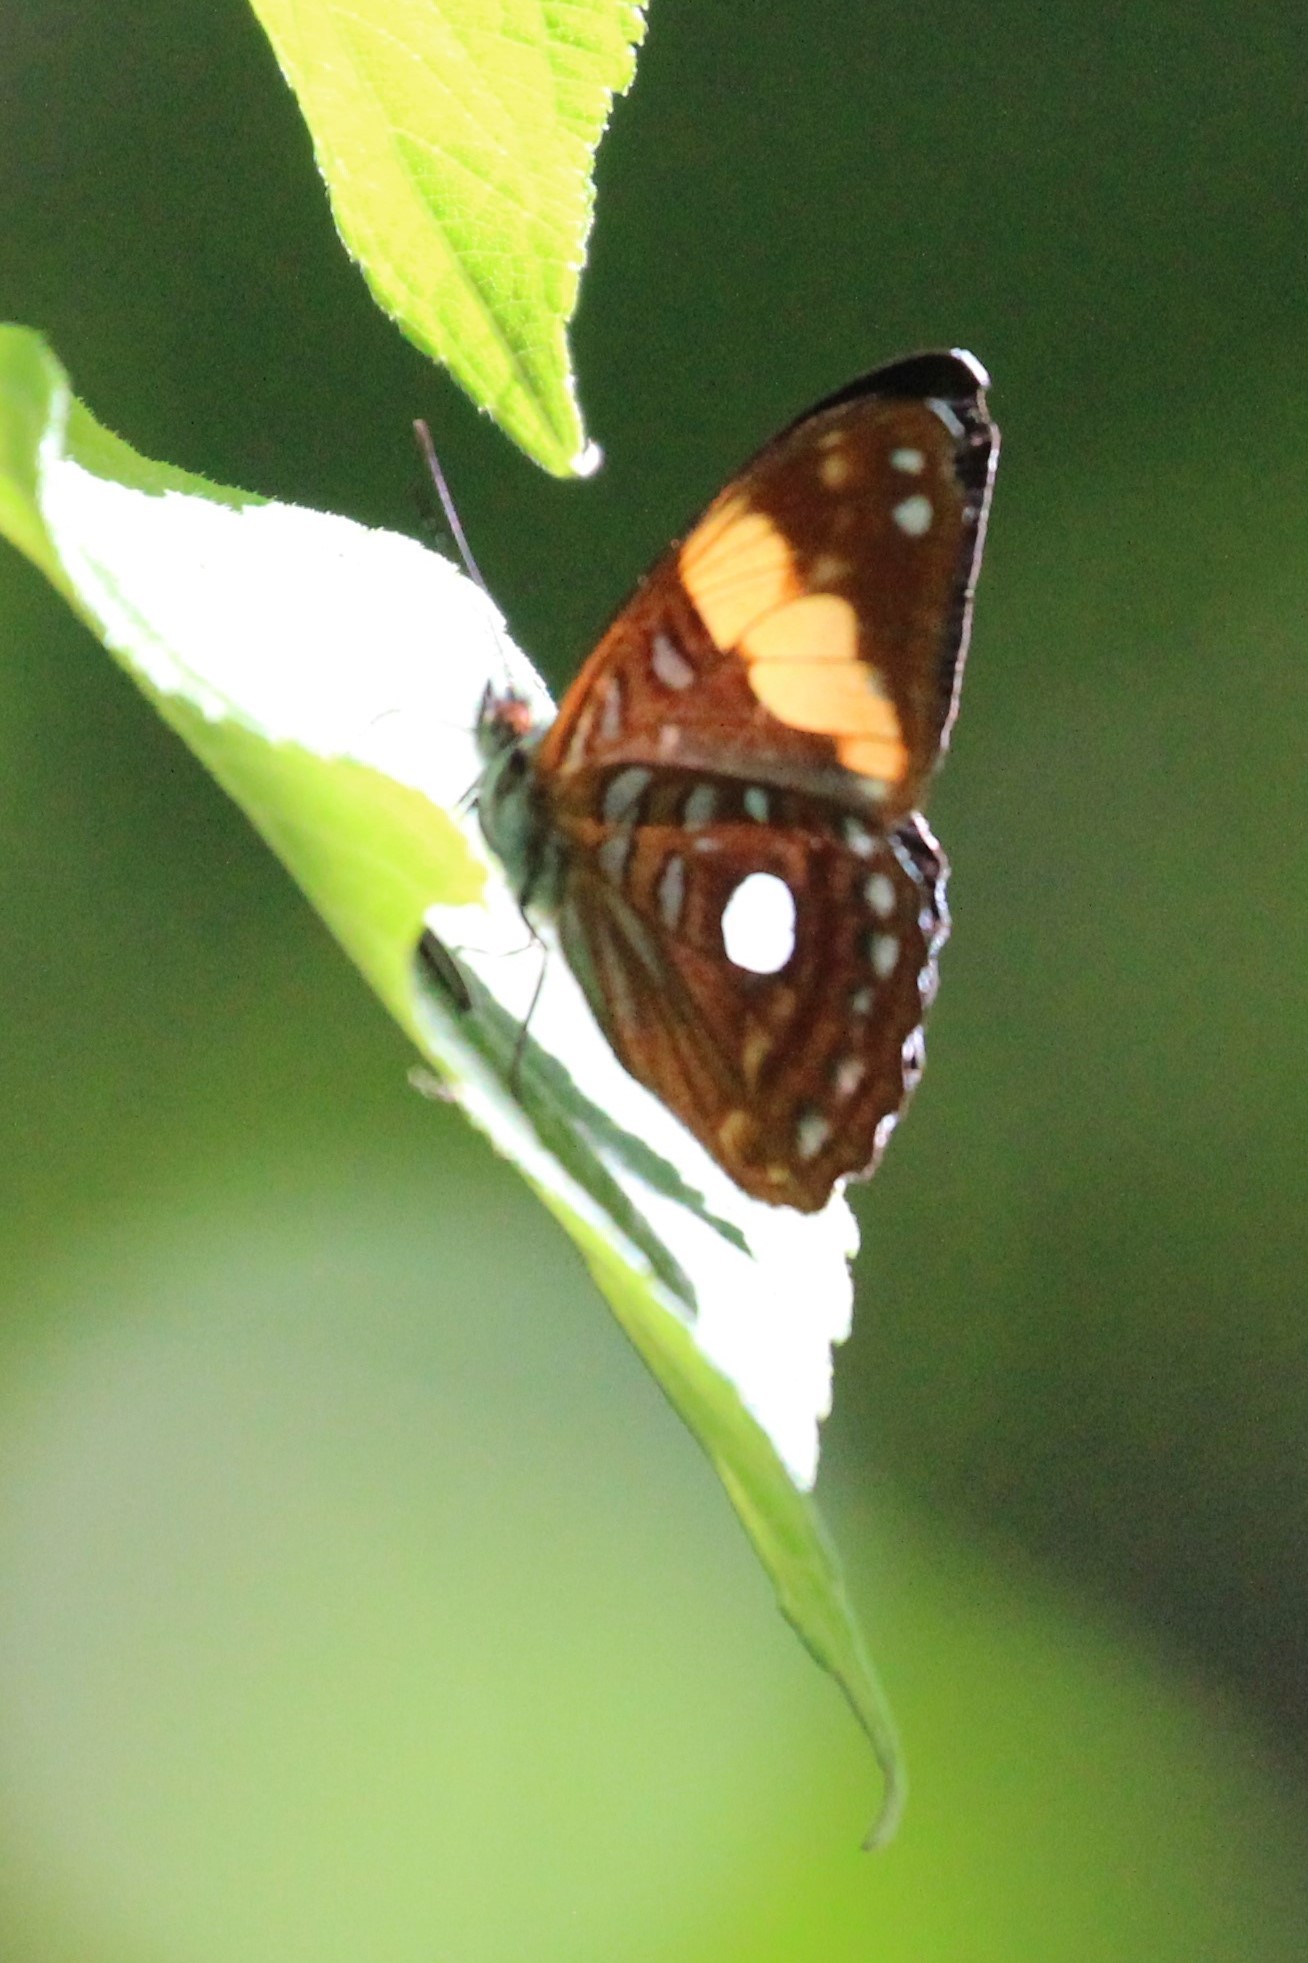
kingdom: Animalia
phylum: Arthropoda
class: Insecta
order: Lepidoptera
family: Nymphalidae
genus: Limenitis
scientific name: Limenitis leucophthalma
